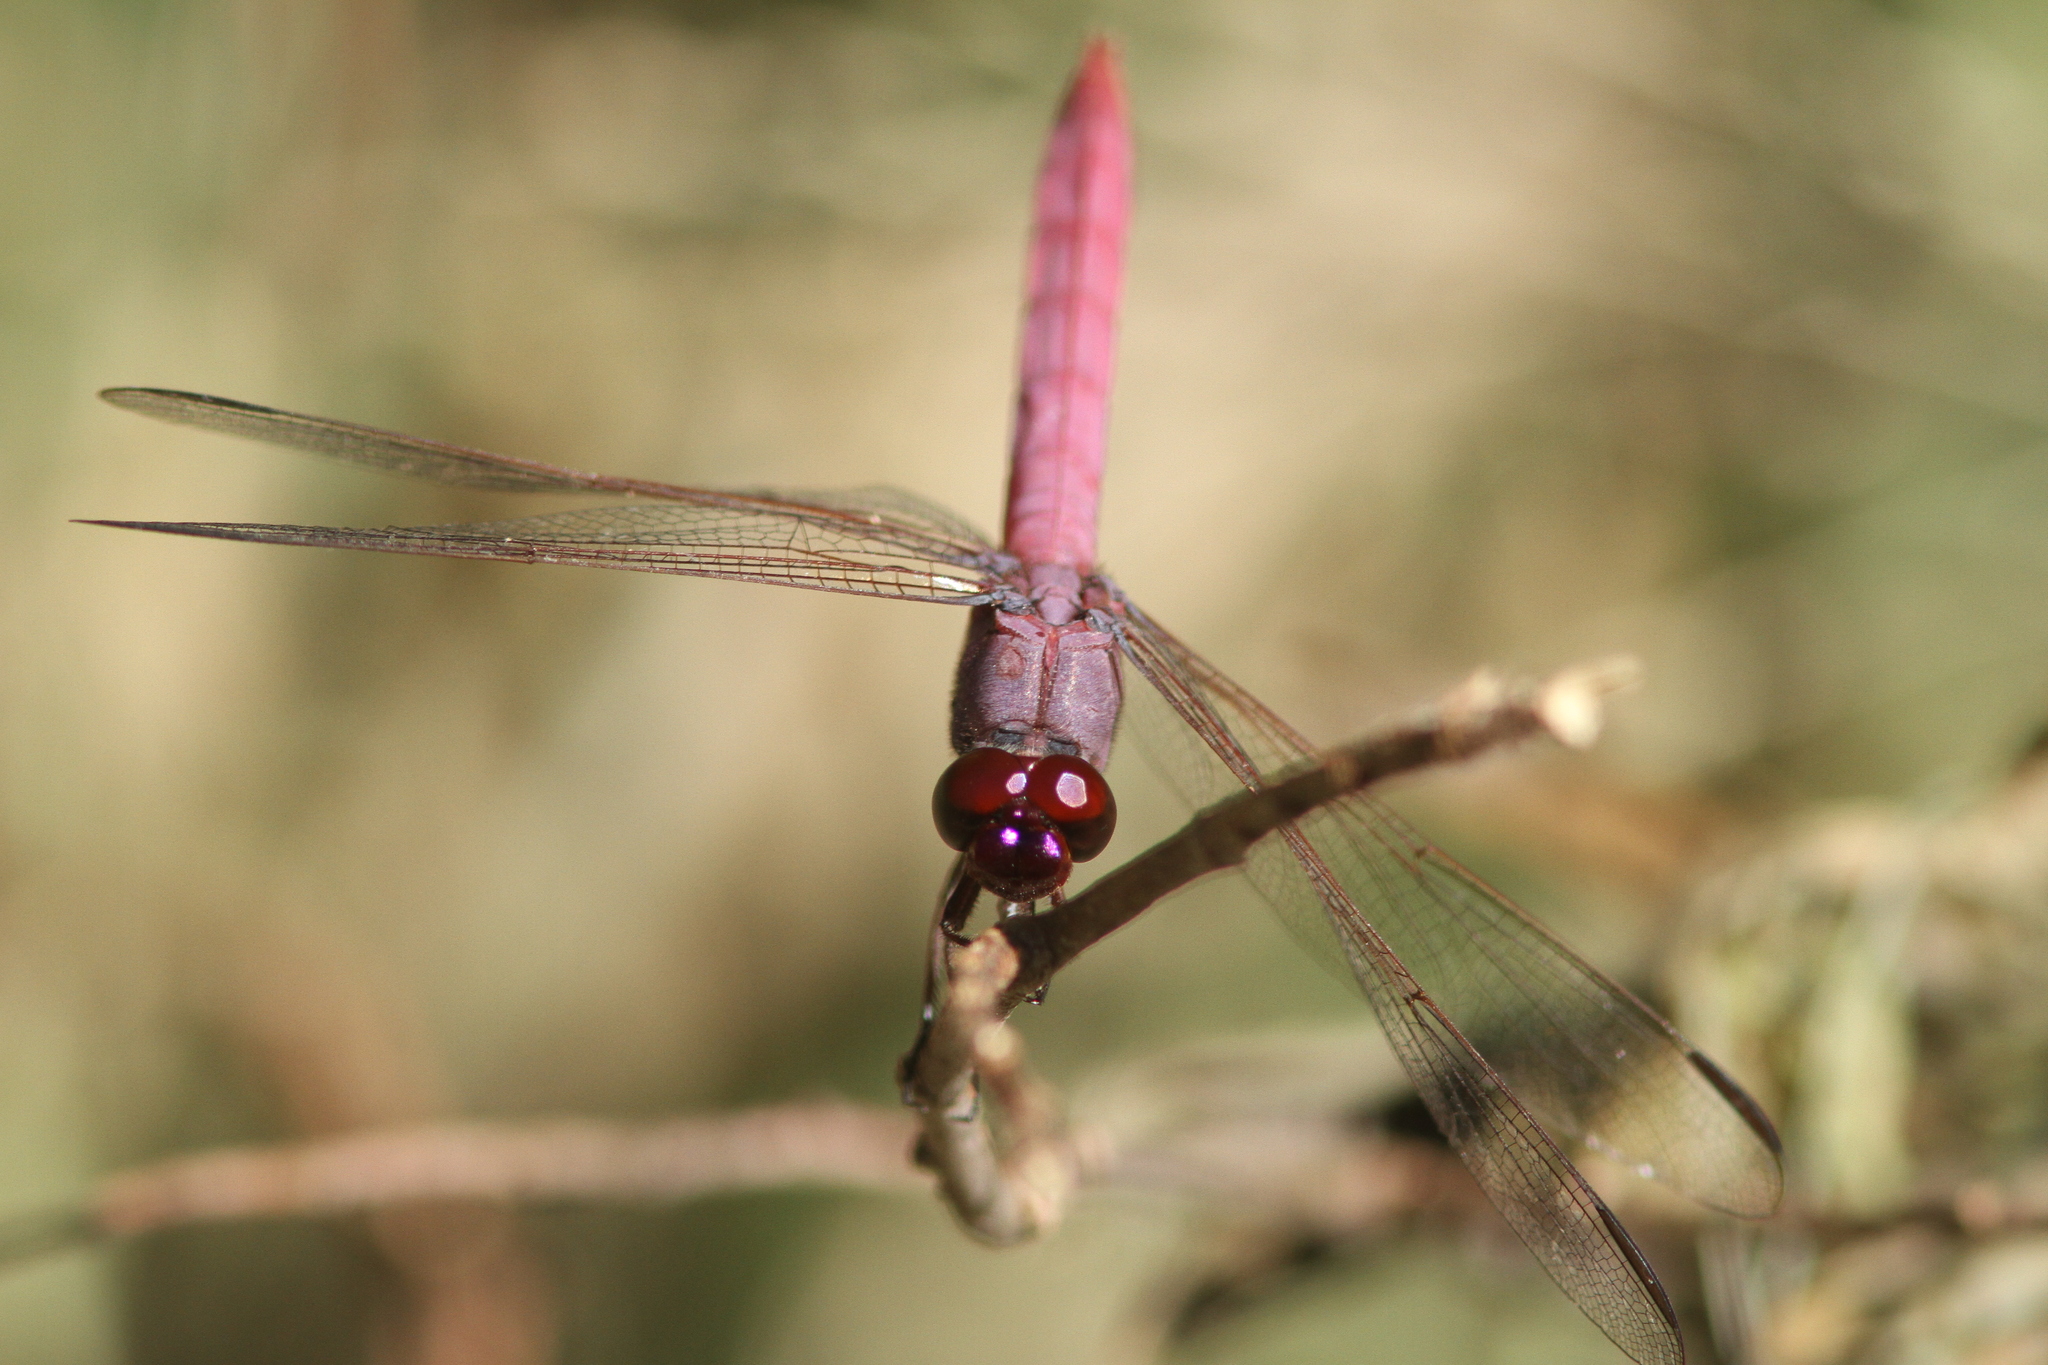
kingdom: Animalia
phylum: Arthropoda
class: Insecta
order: Odonata
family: Libellulidae
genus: Orthemis
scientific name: Orthemis ferruginea
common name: Roseate skimmer
